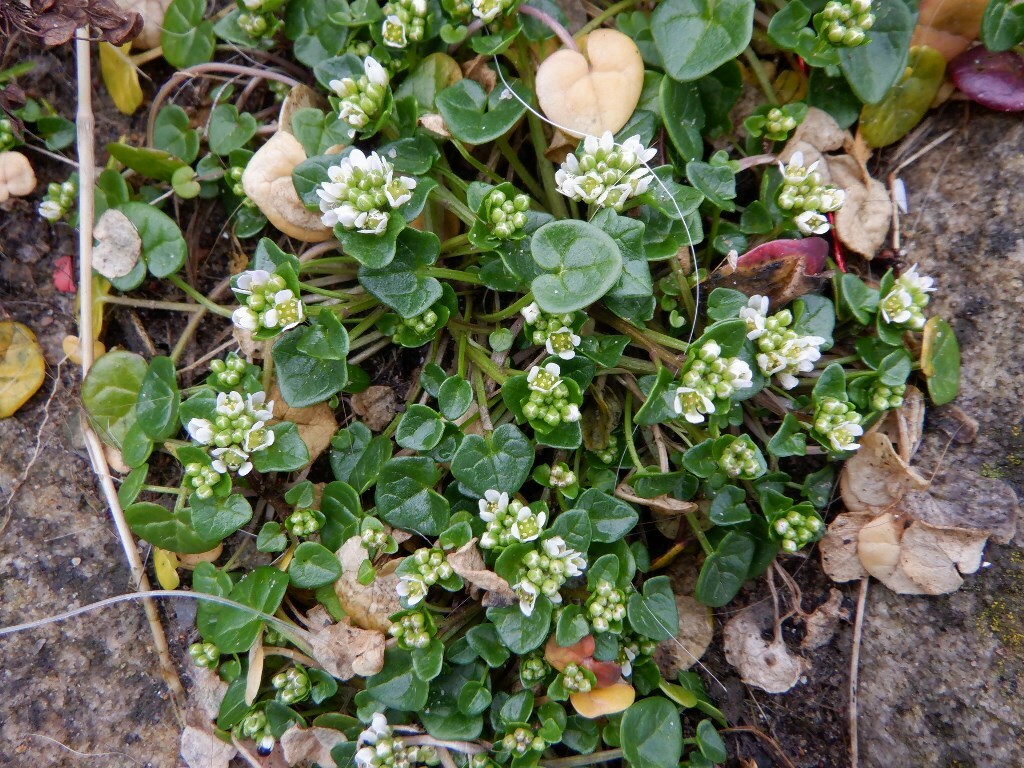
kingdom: Plantae
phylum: Tracheophyta
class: Magnoliopsida
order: Brassicales
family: Brassicaceae
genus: Cochlearia
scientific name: Cochlearia danica
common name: Early scurvygrass
